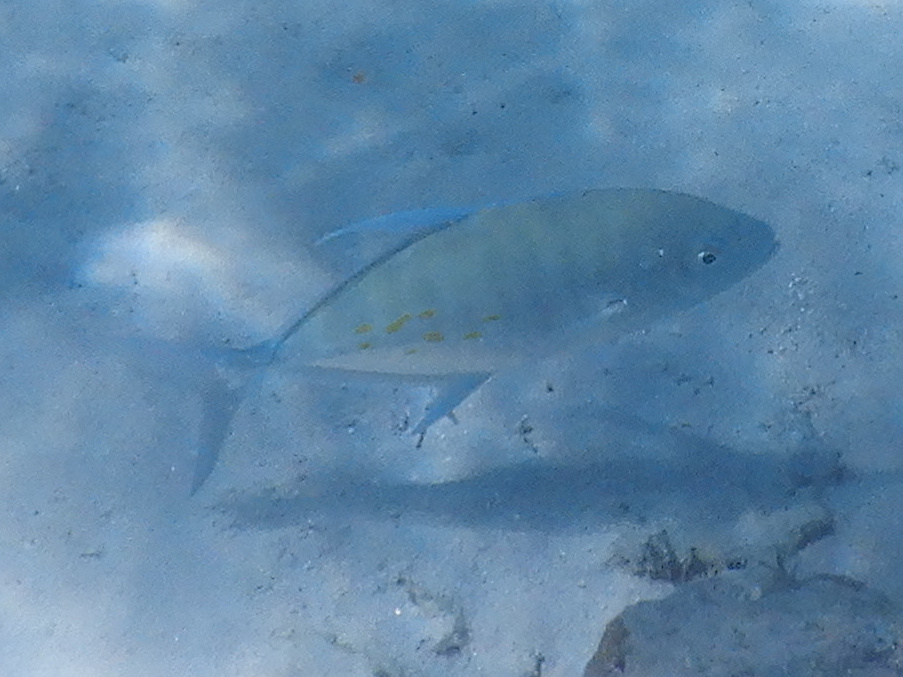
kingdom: Animalia
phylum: Chordata
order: Perciformes
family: Carangidae
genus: Carangoides
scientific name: Carangoides orthogrammus
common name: Island trevally
